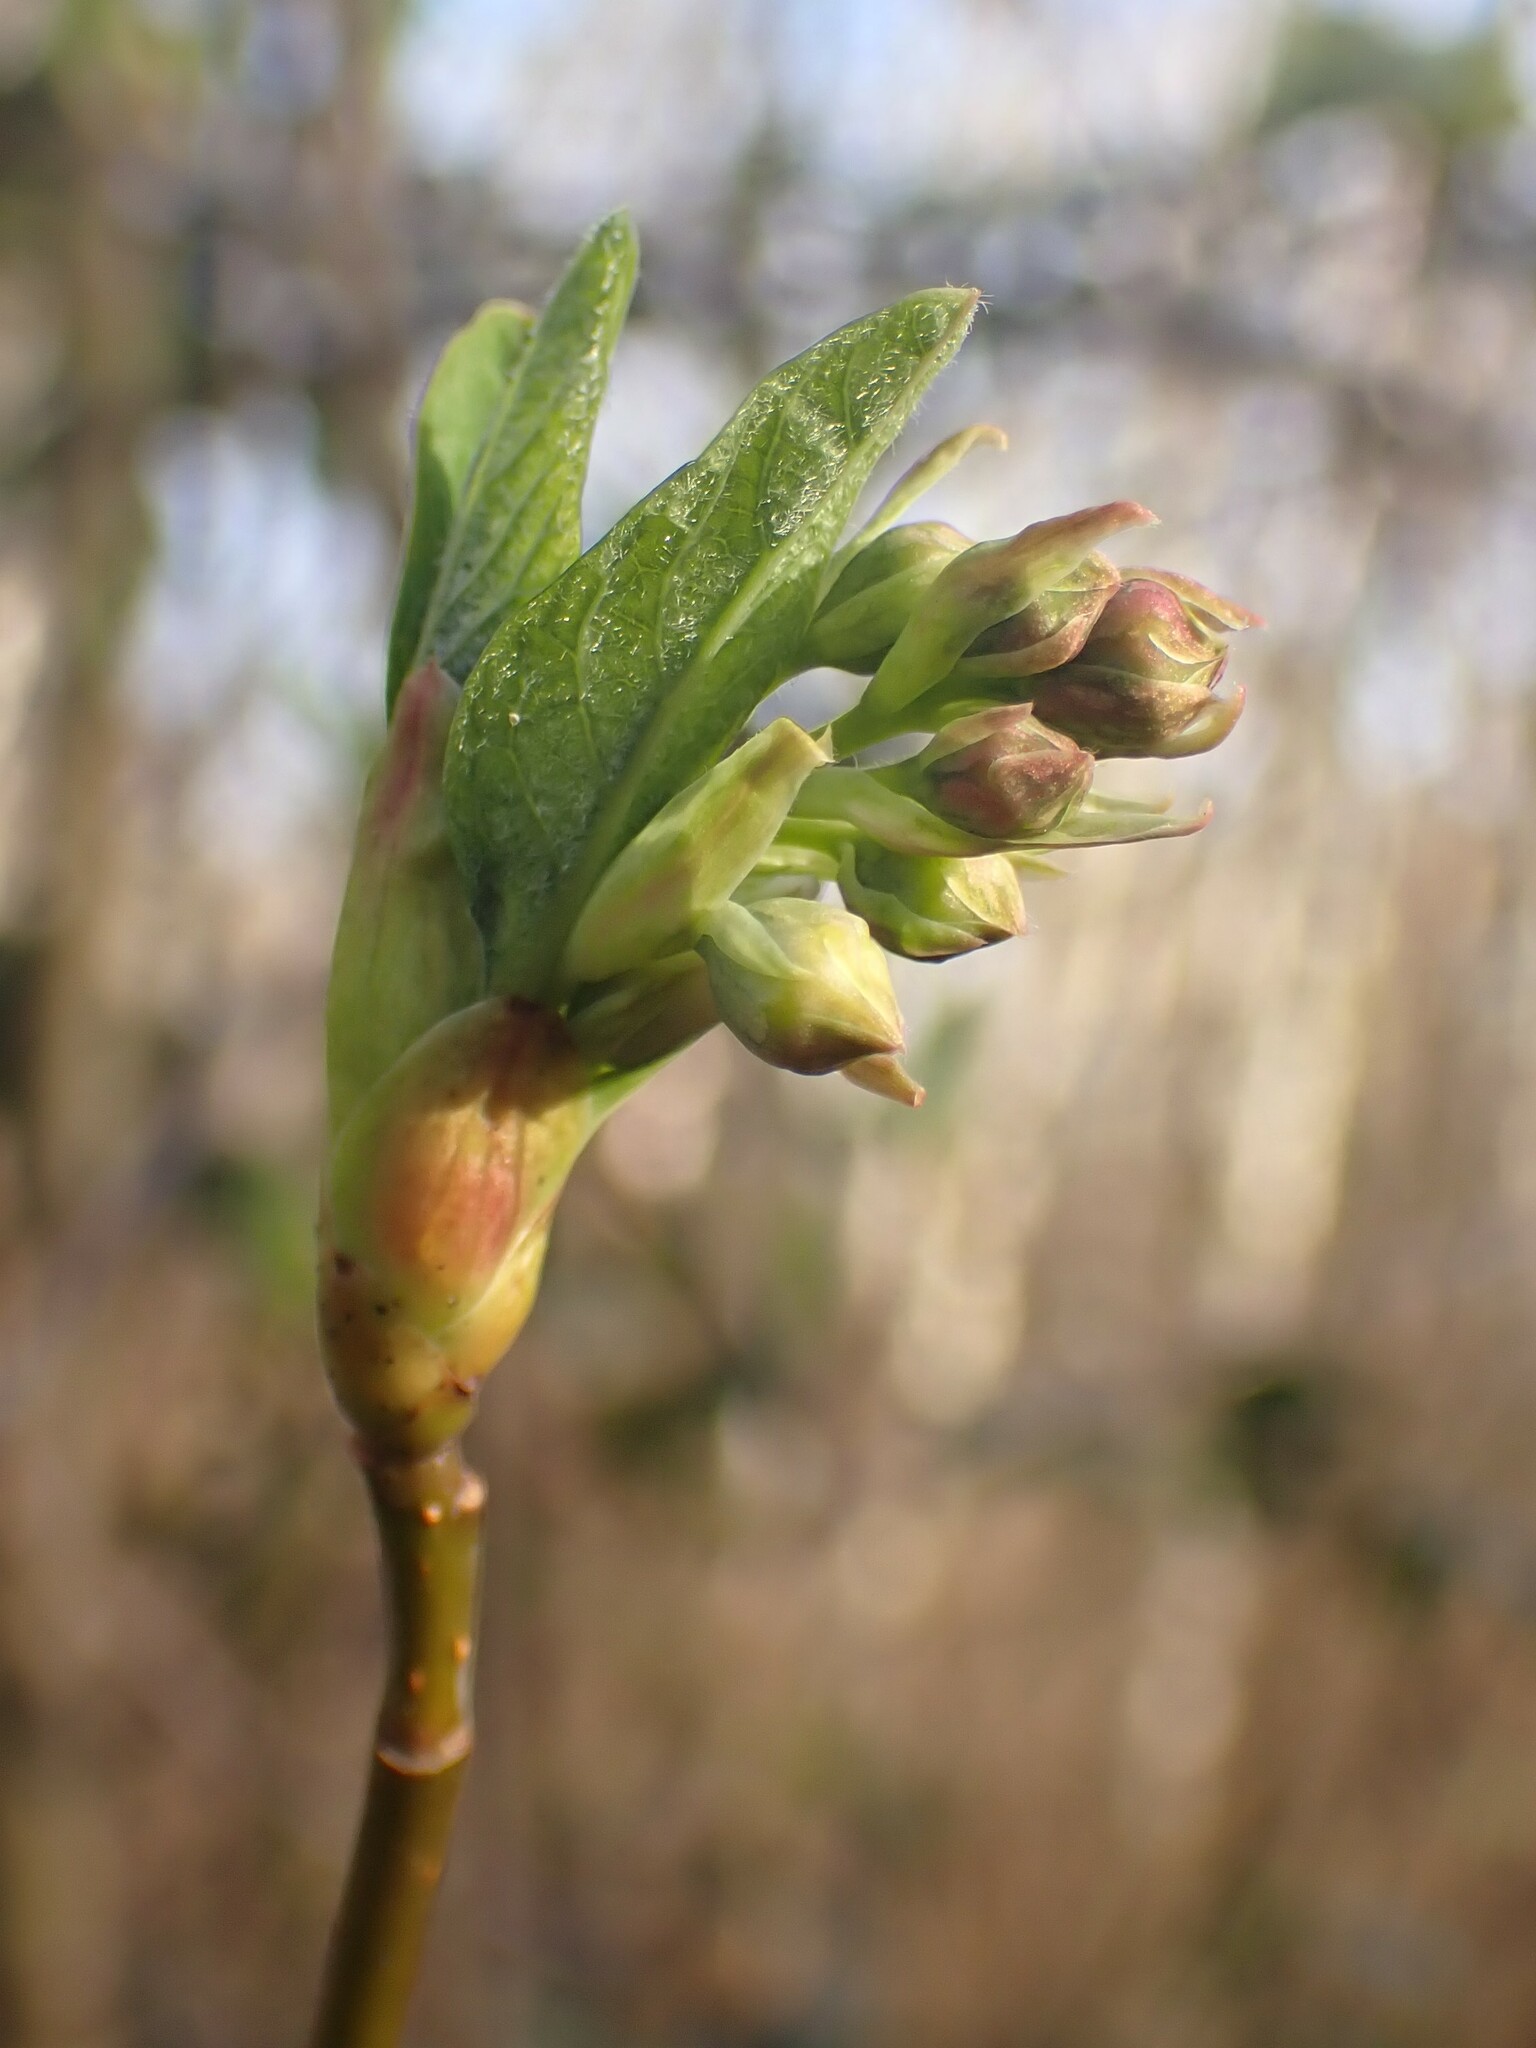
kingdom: Plantae
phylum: Tracheophyta
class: Magnoliopsida
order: Rosales
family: Rosaceae
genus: Oemleria
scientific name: Oemleria cerasiformis
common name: Osoberry
